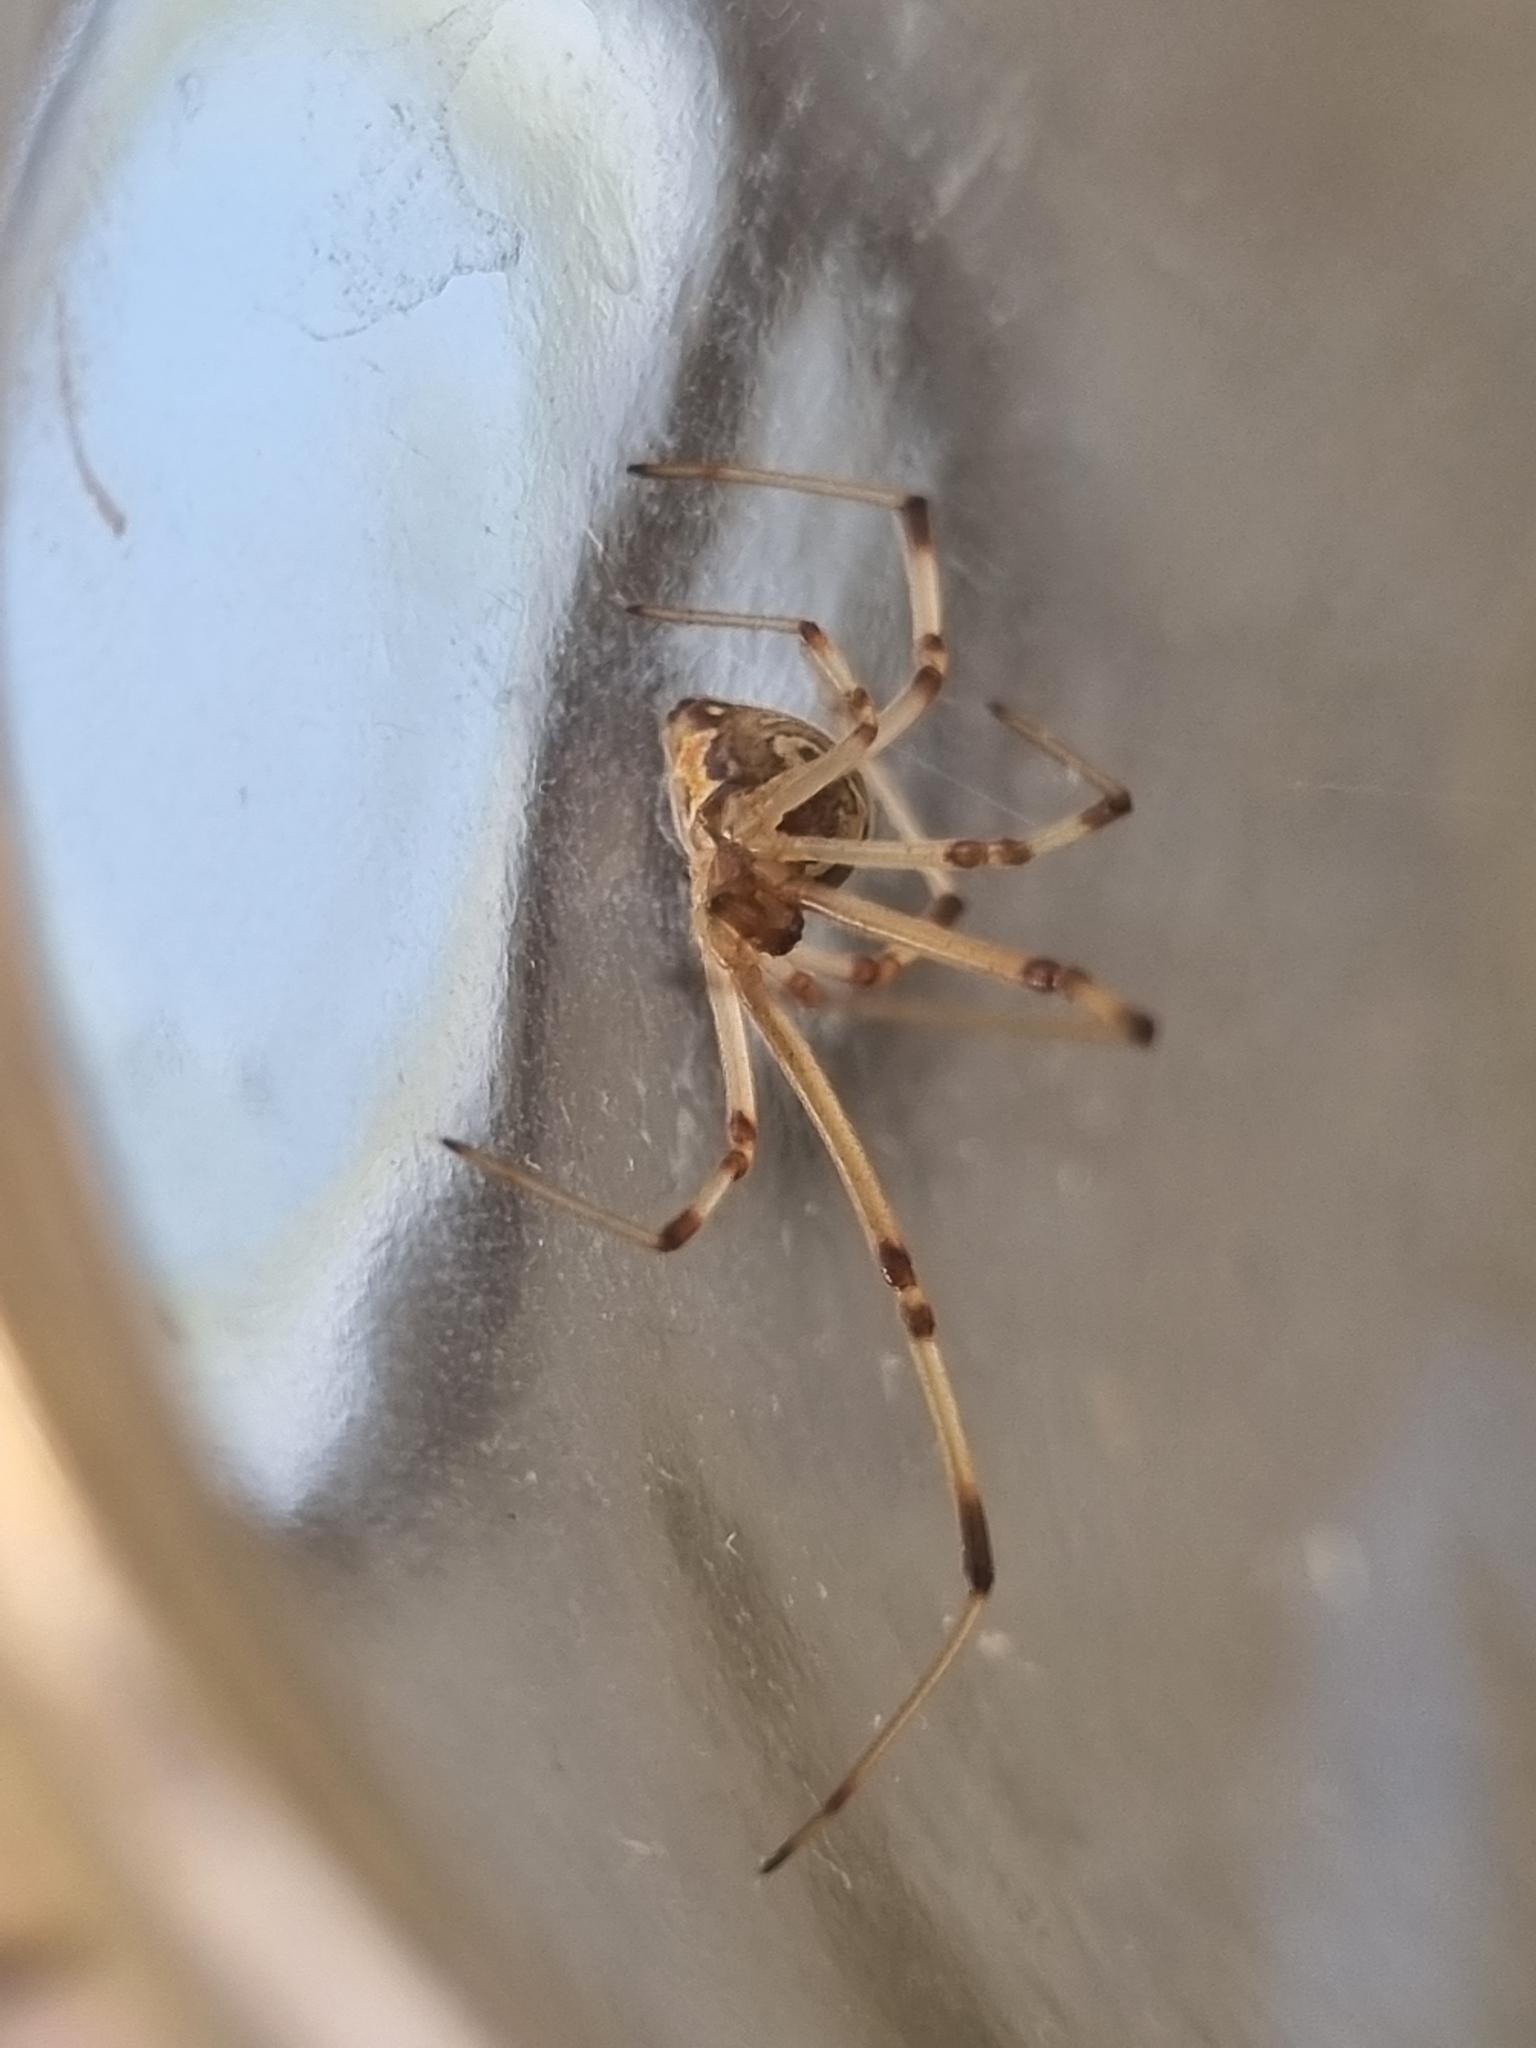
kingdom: Animalia
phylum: Arthropoda
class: Arachnida
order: Araneae
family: Theridiidae
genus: Latrodectus
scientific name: Latrodectus geometricus
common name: Brown widow spider
